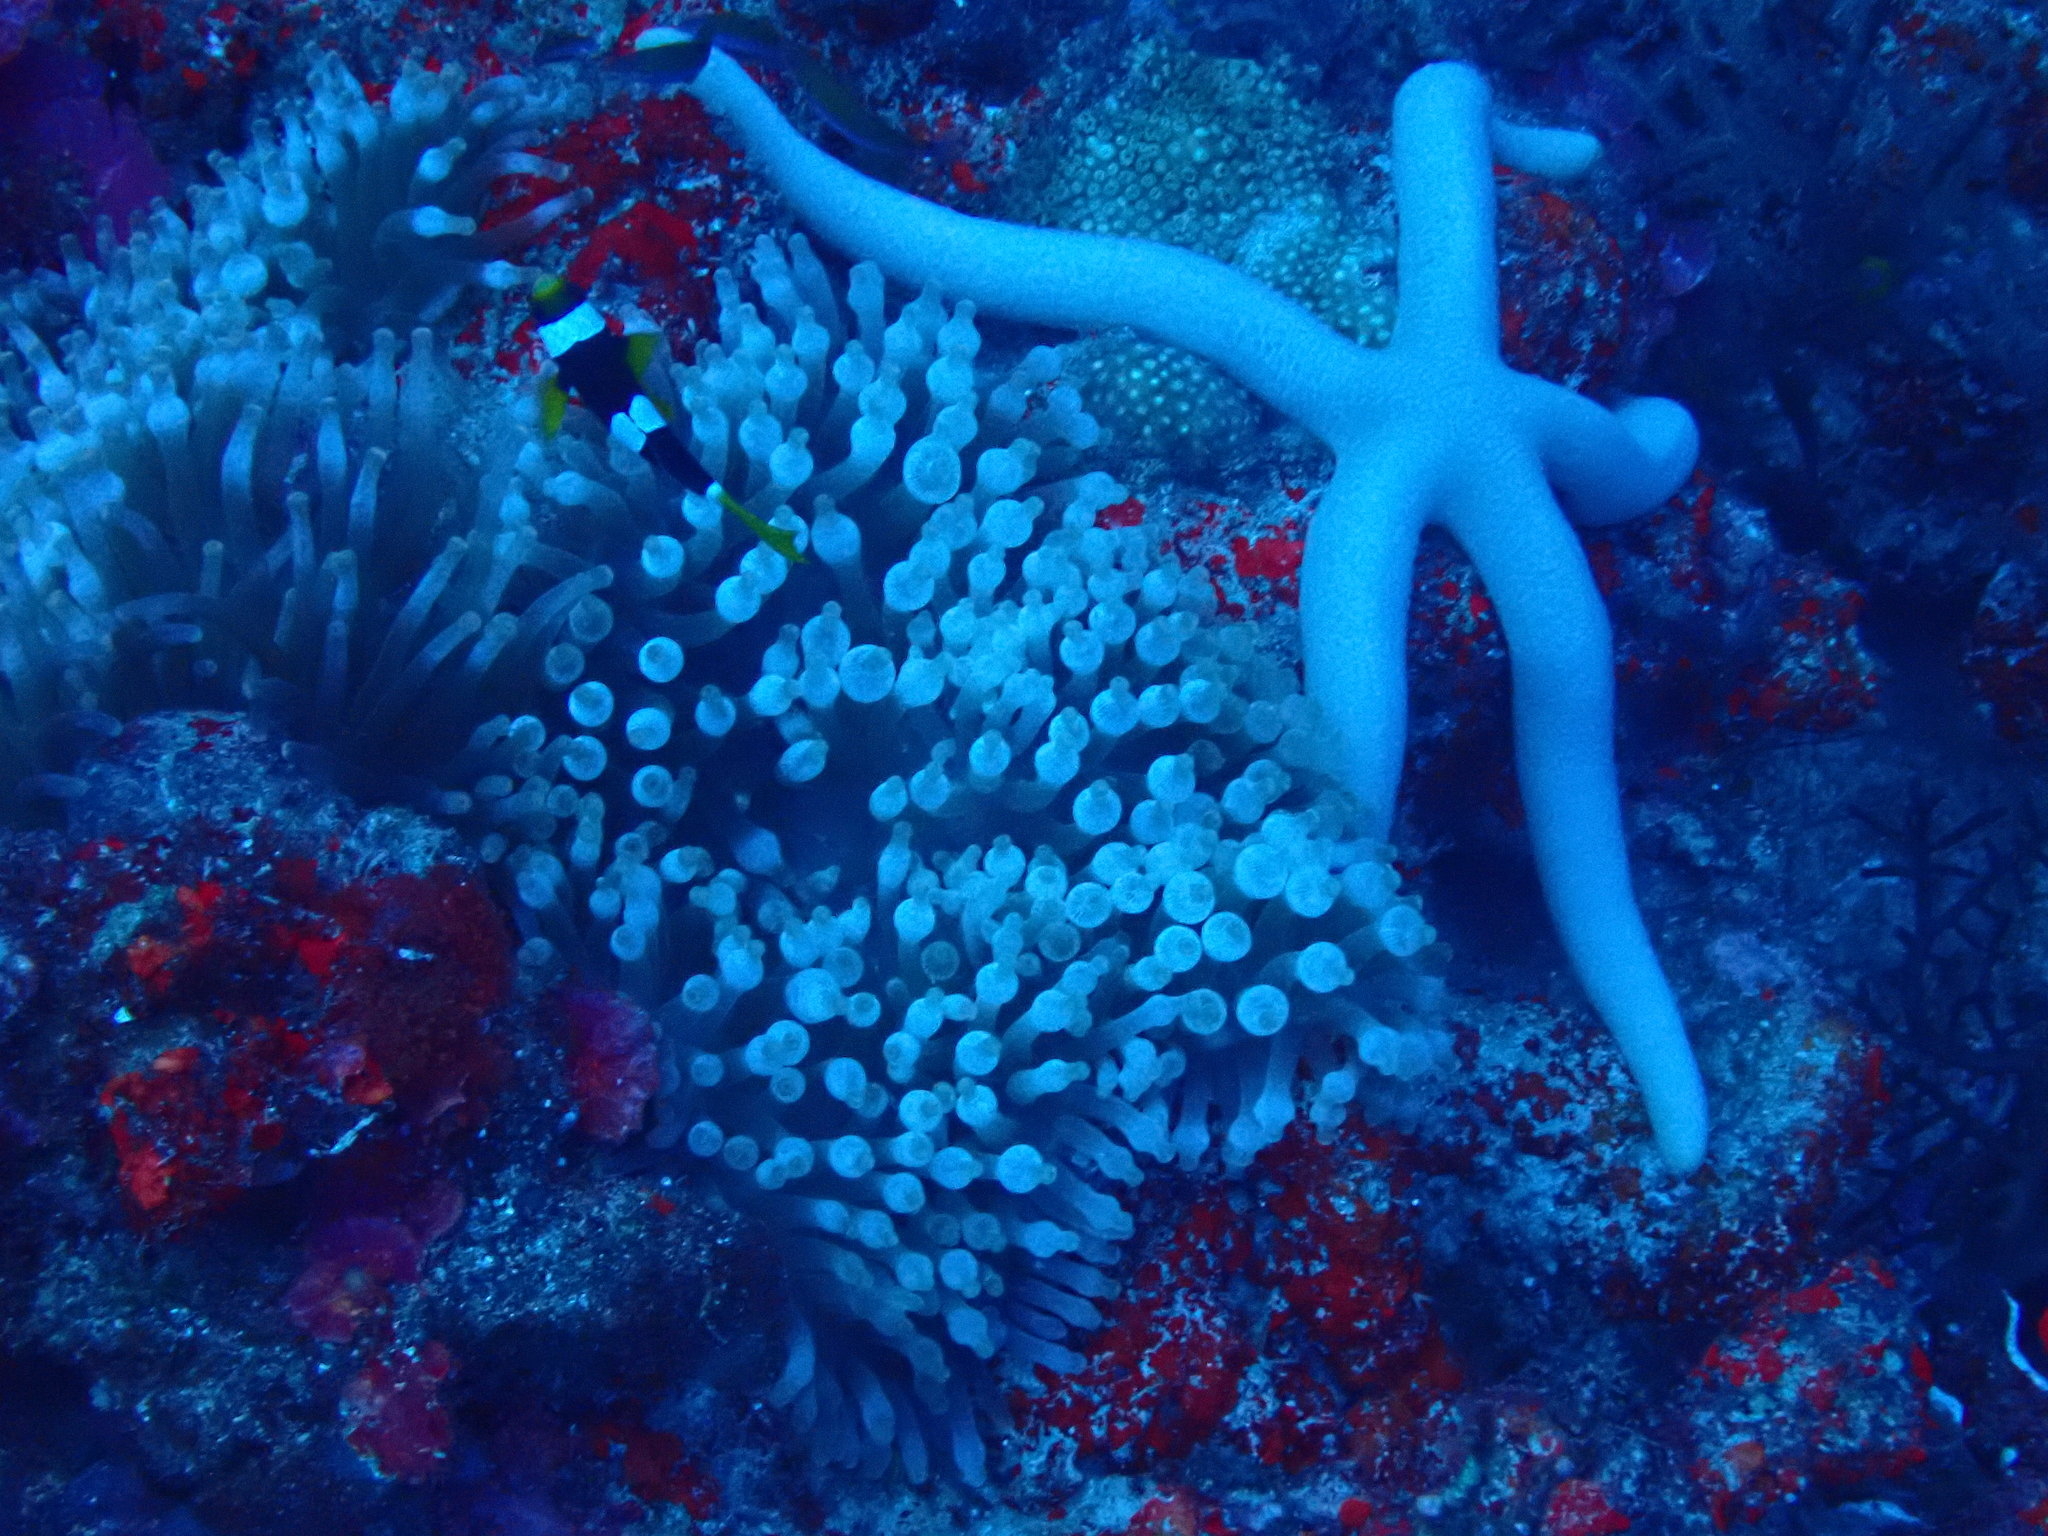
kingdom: Animalia
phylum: Cnidaria
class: Anthozoa
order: Actiniaria
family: Actiniidae
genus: Entacmaea
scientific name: Entacmaea quadricolor
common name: Bulb tentacle sea anemone
